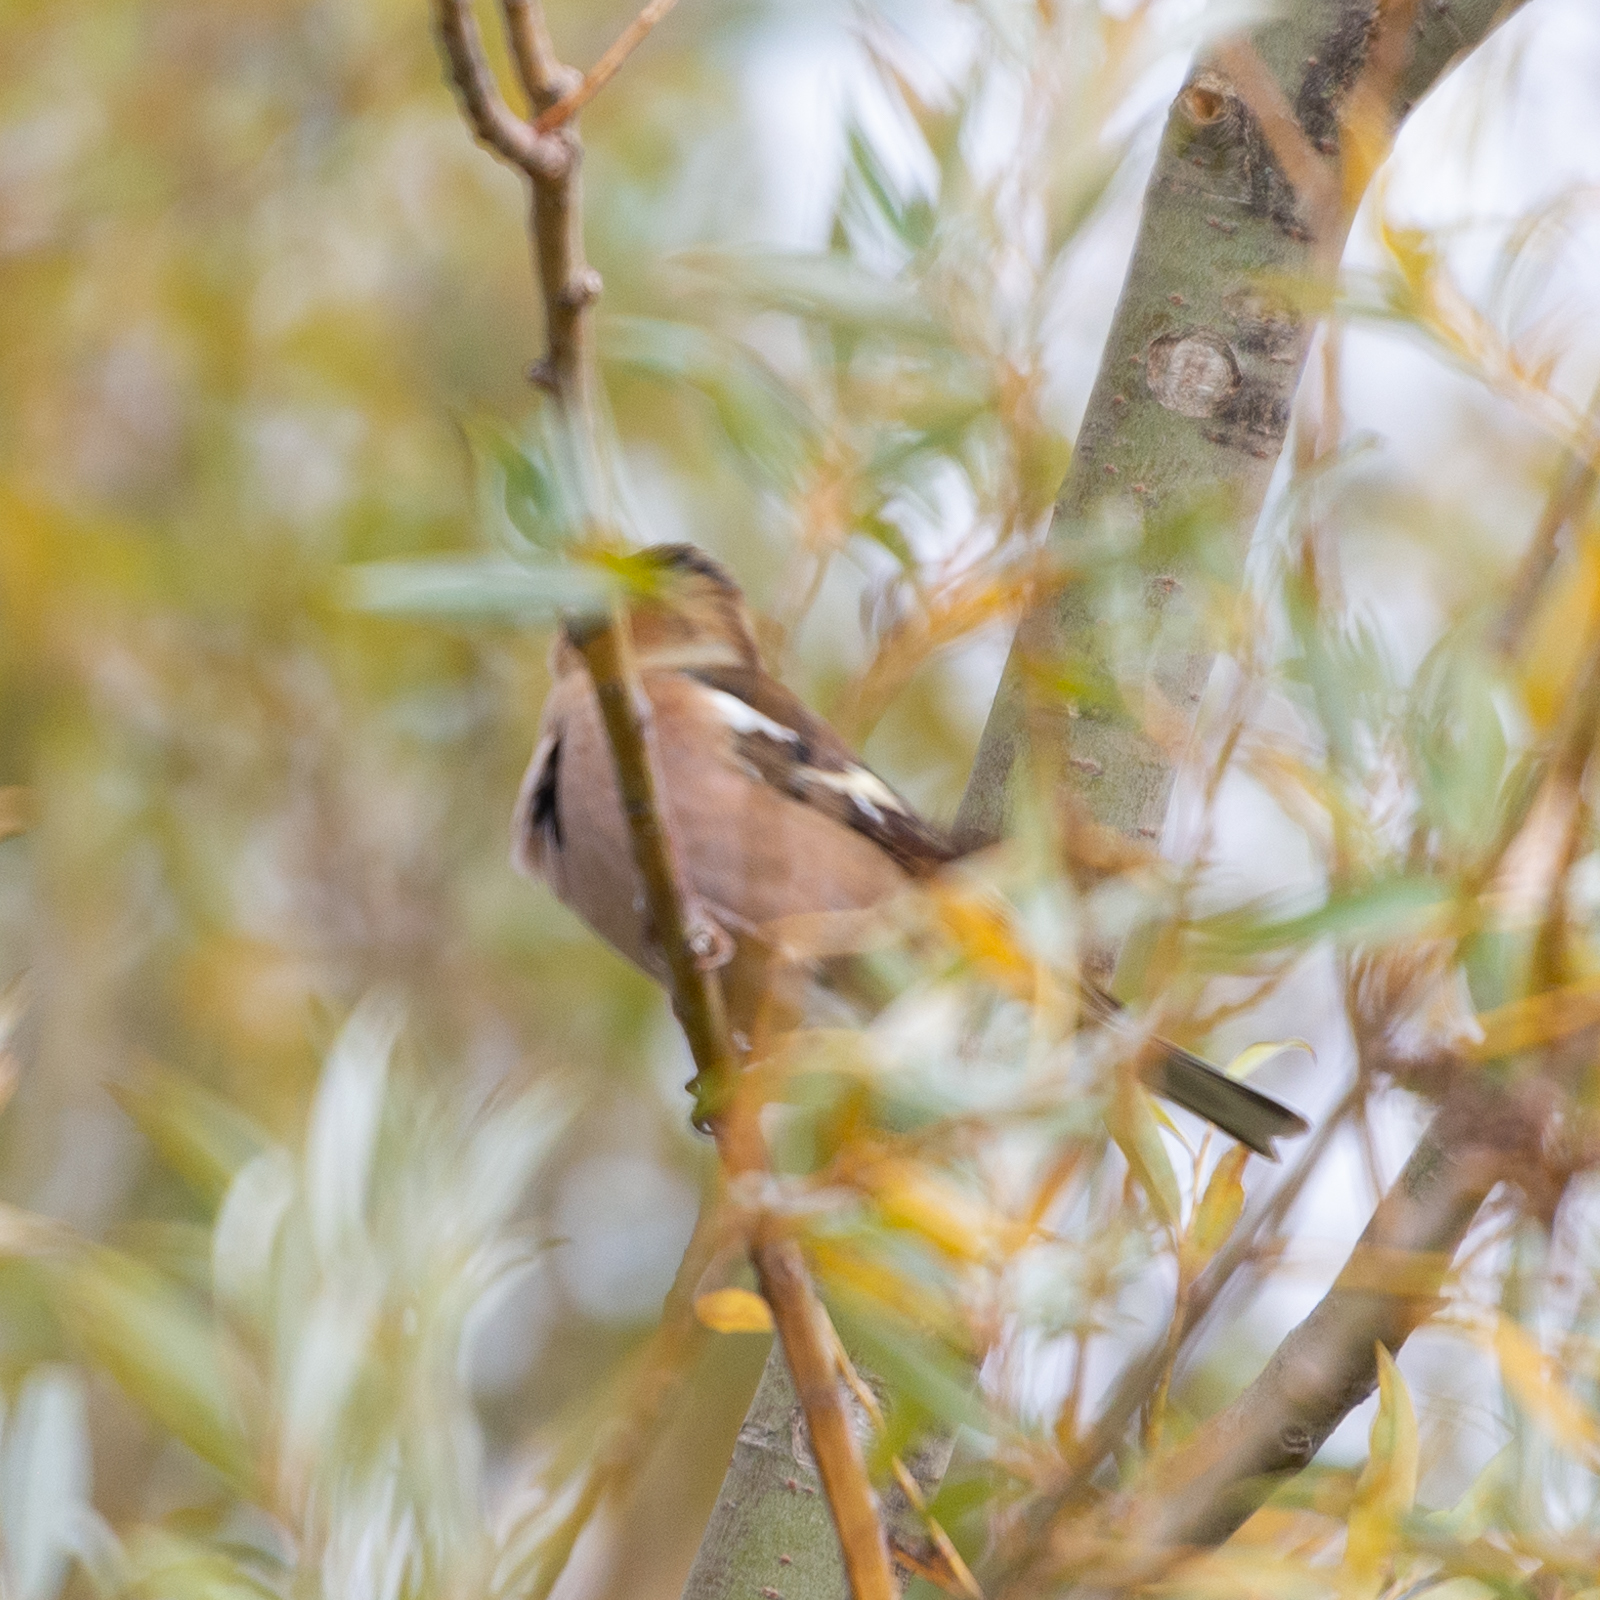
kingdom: Animalia
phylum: Chordata
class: Aves
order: Passeriformes
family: Fringillidae
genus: Fringilla
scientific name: Fringilla coelebs
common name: Common chaffinch
